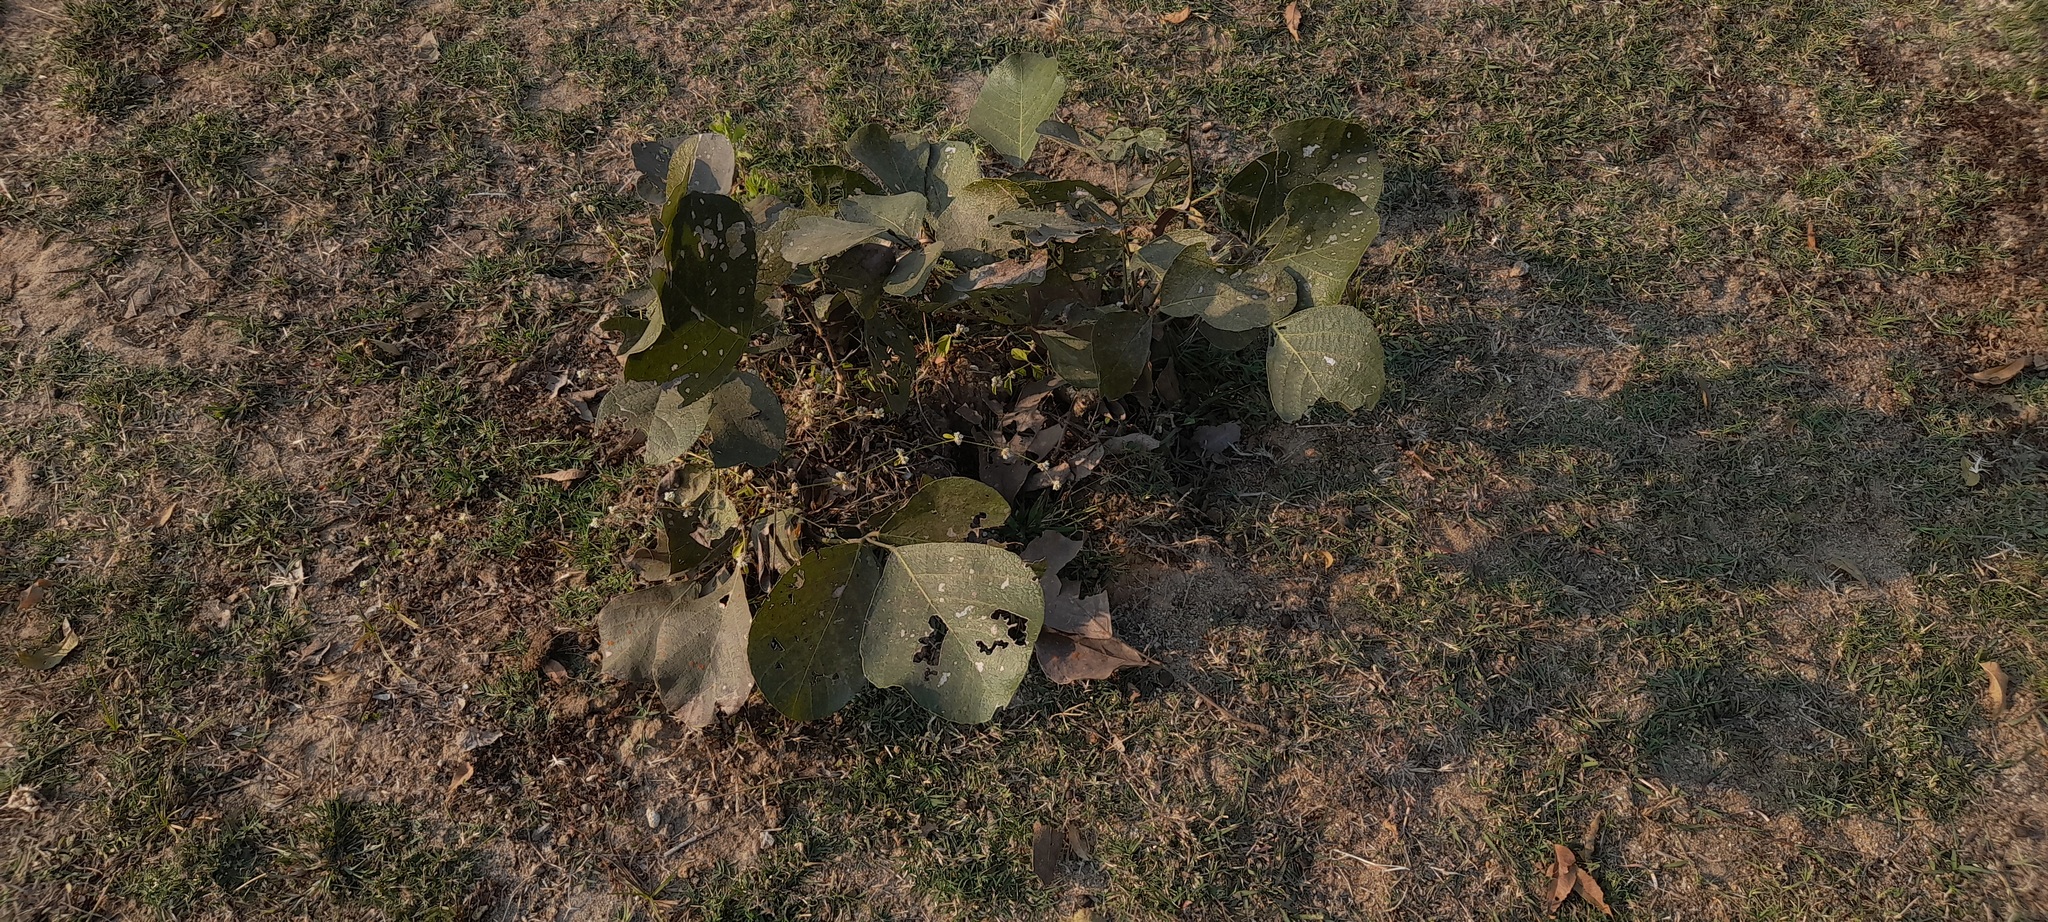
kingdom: Plantae
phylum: Tracheophyta
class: Magnoliopsida
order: Fabales
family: Fabaceae
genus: Butea
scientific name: Butea monosperma
